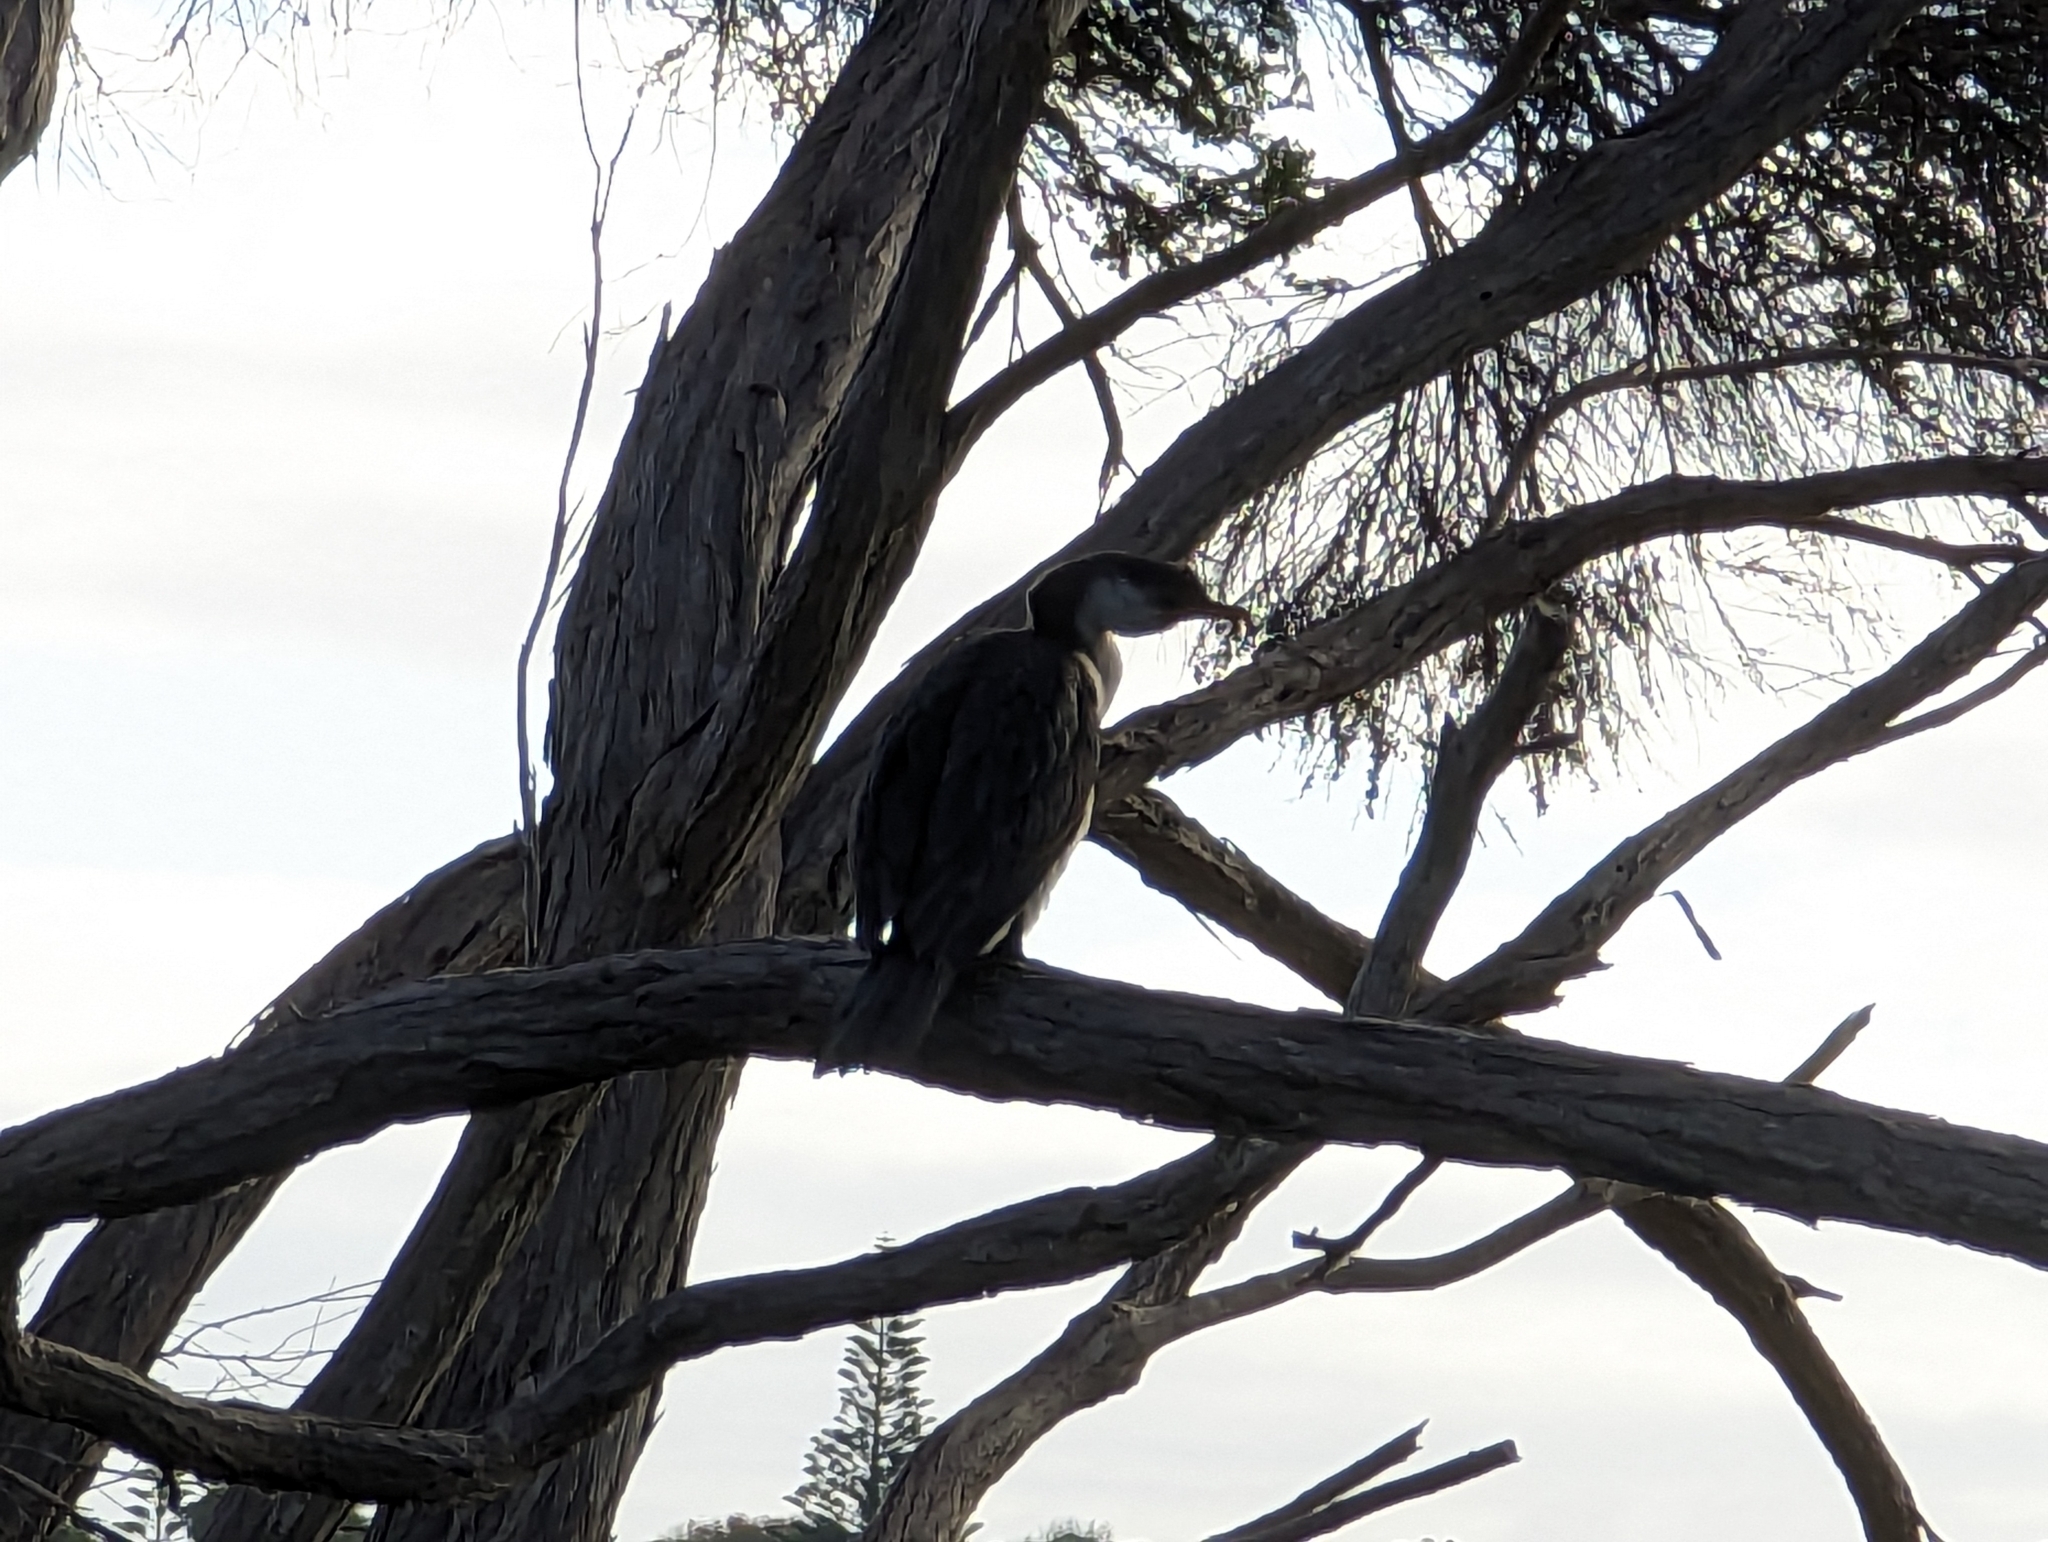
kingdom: Animalia
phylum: Chordata
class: Aves
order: Suliformes
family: Phalacrocoracidae
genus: Microcarbo
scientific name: Microcarbo melanoleucos
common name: Little pied cormorant
